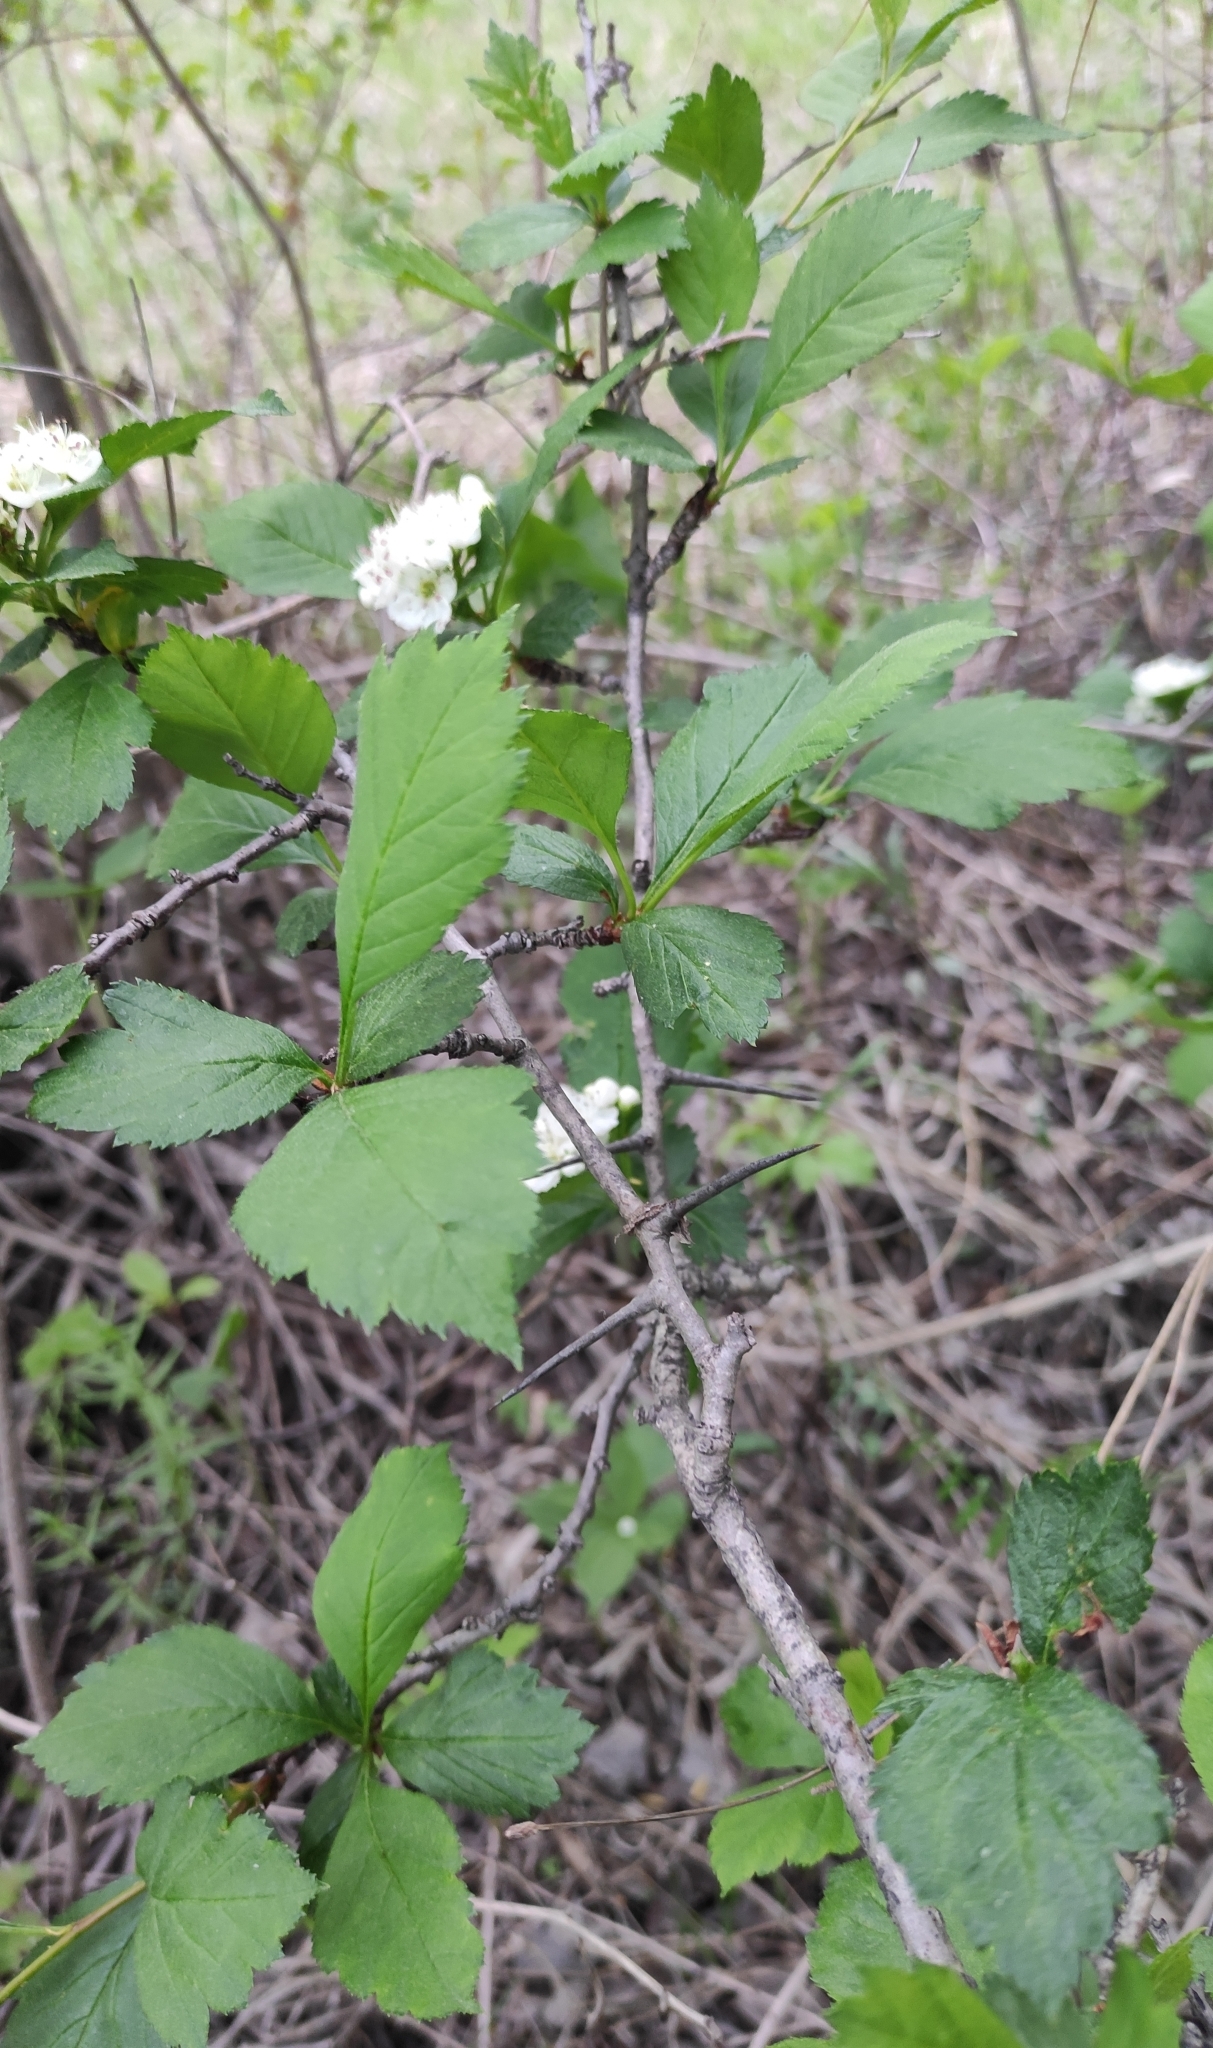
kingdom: Plantae
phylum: Tracheophyta
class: Magnoliopsida
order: Rosales
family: Rosaceae
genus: Crataegus
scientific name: Crataegus sanguinea
